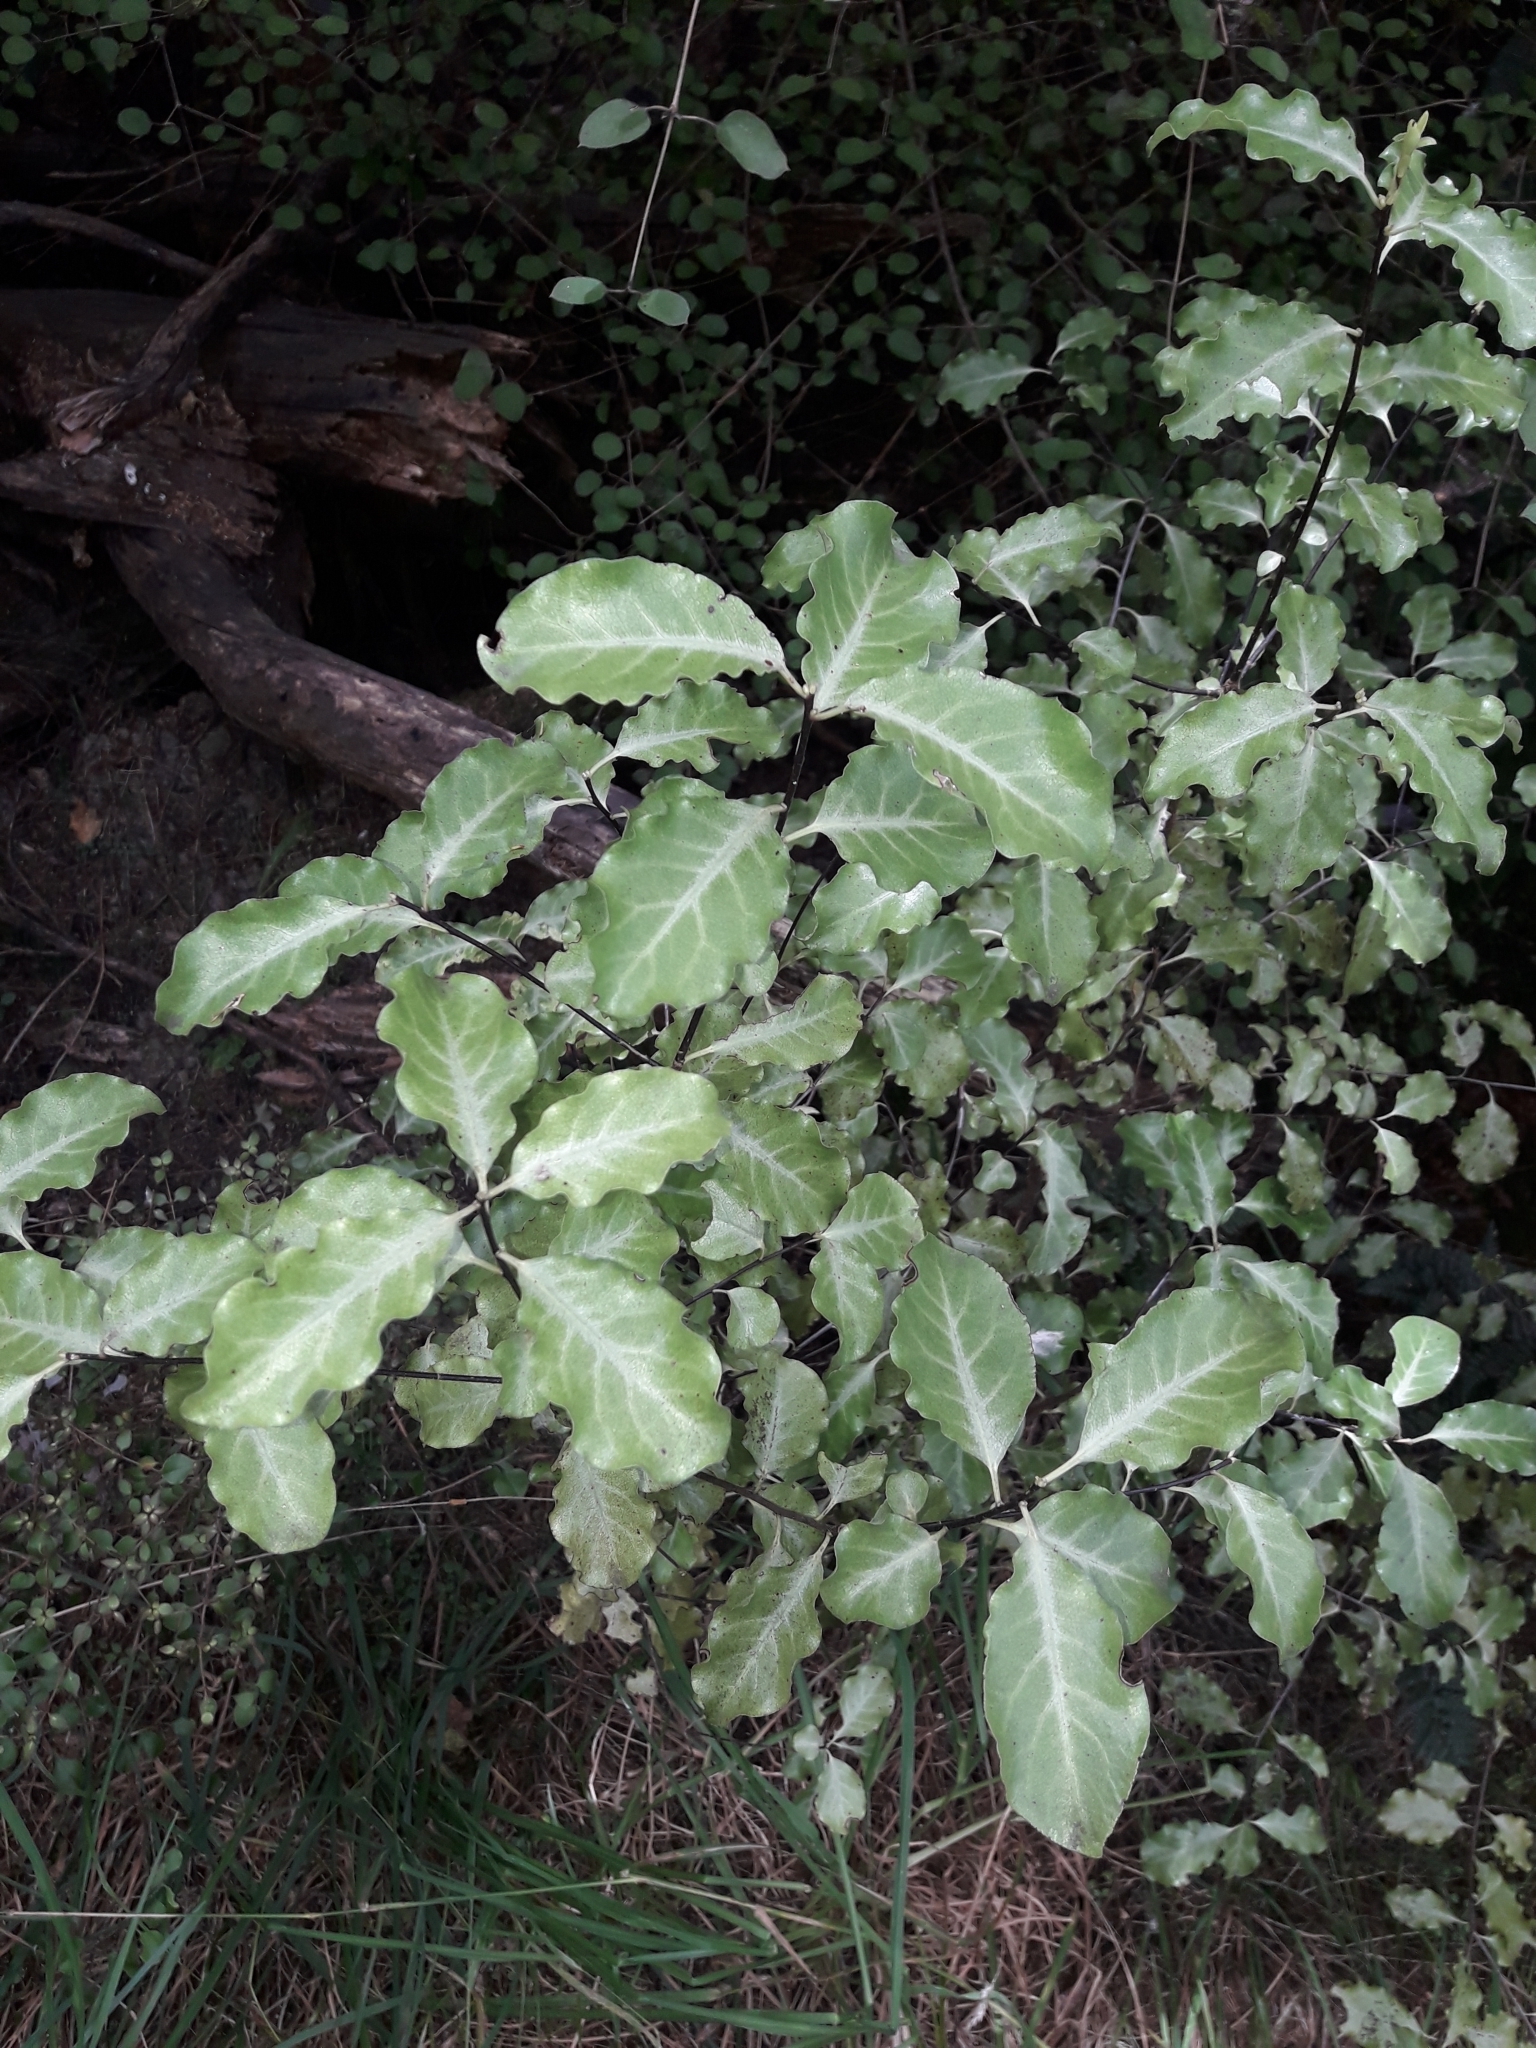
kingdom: Plantae
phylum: Tracheophyta
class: Magnoliopsida
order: Apiales
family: Pittosporaceae
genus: Pittosporum
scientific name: Pittosporum tenuifolium
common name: Kohuhu
